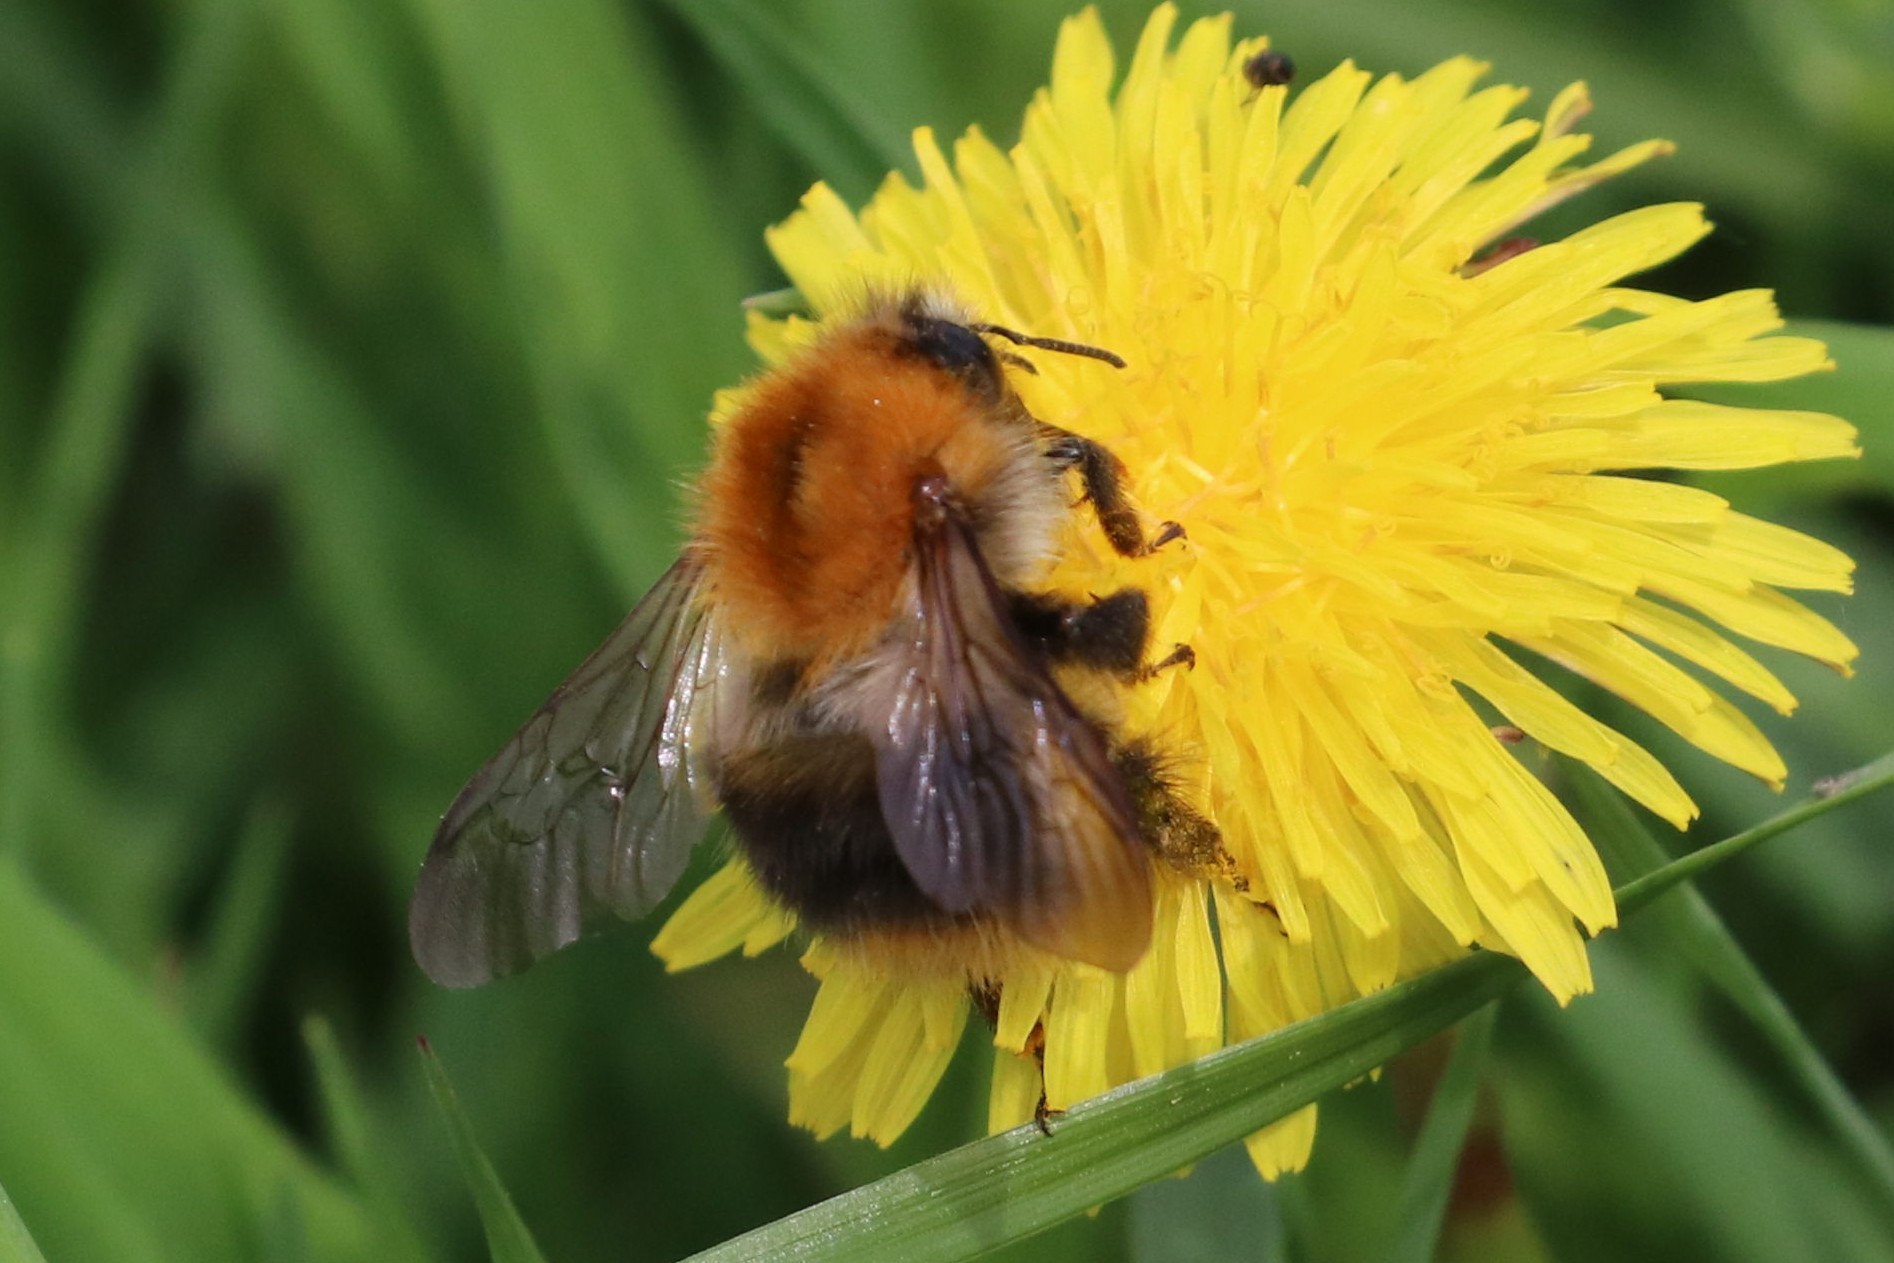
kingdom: Animalia
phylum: Arthropoda
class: Insecta
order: Hymenoptera
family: Apidae
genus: Bombus
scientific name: Bombus pascuorum
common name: Common carder bee
